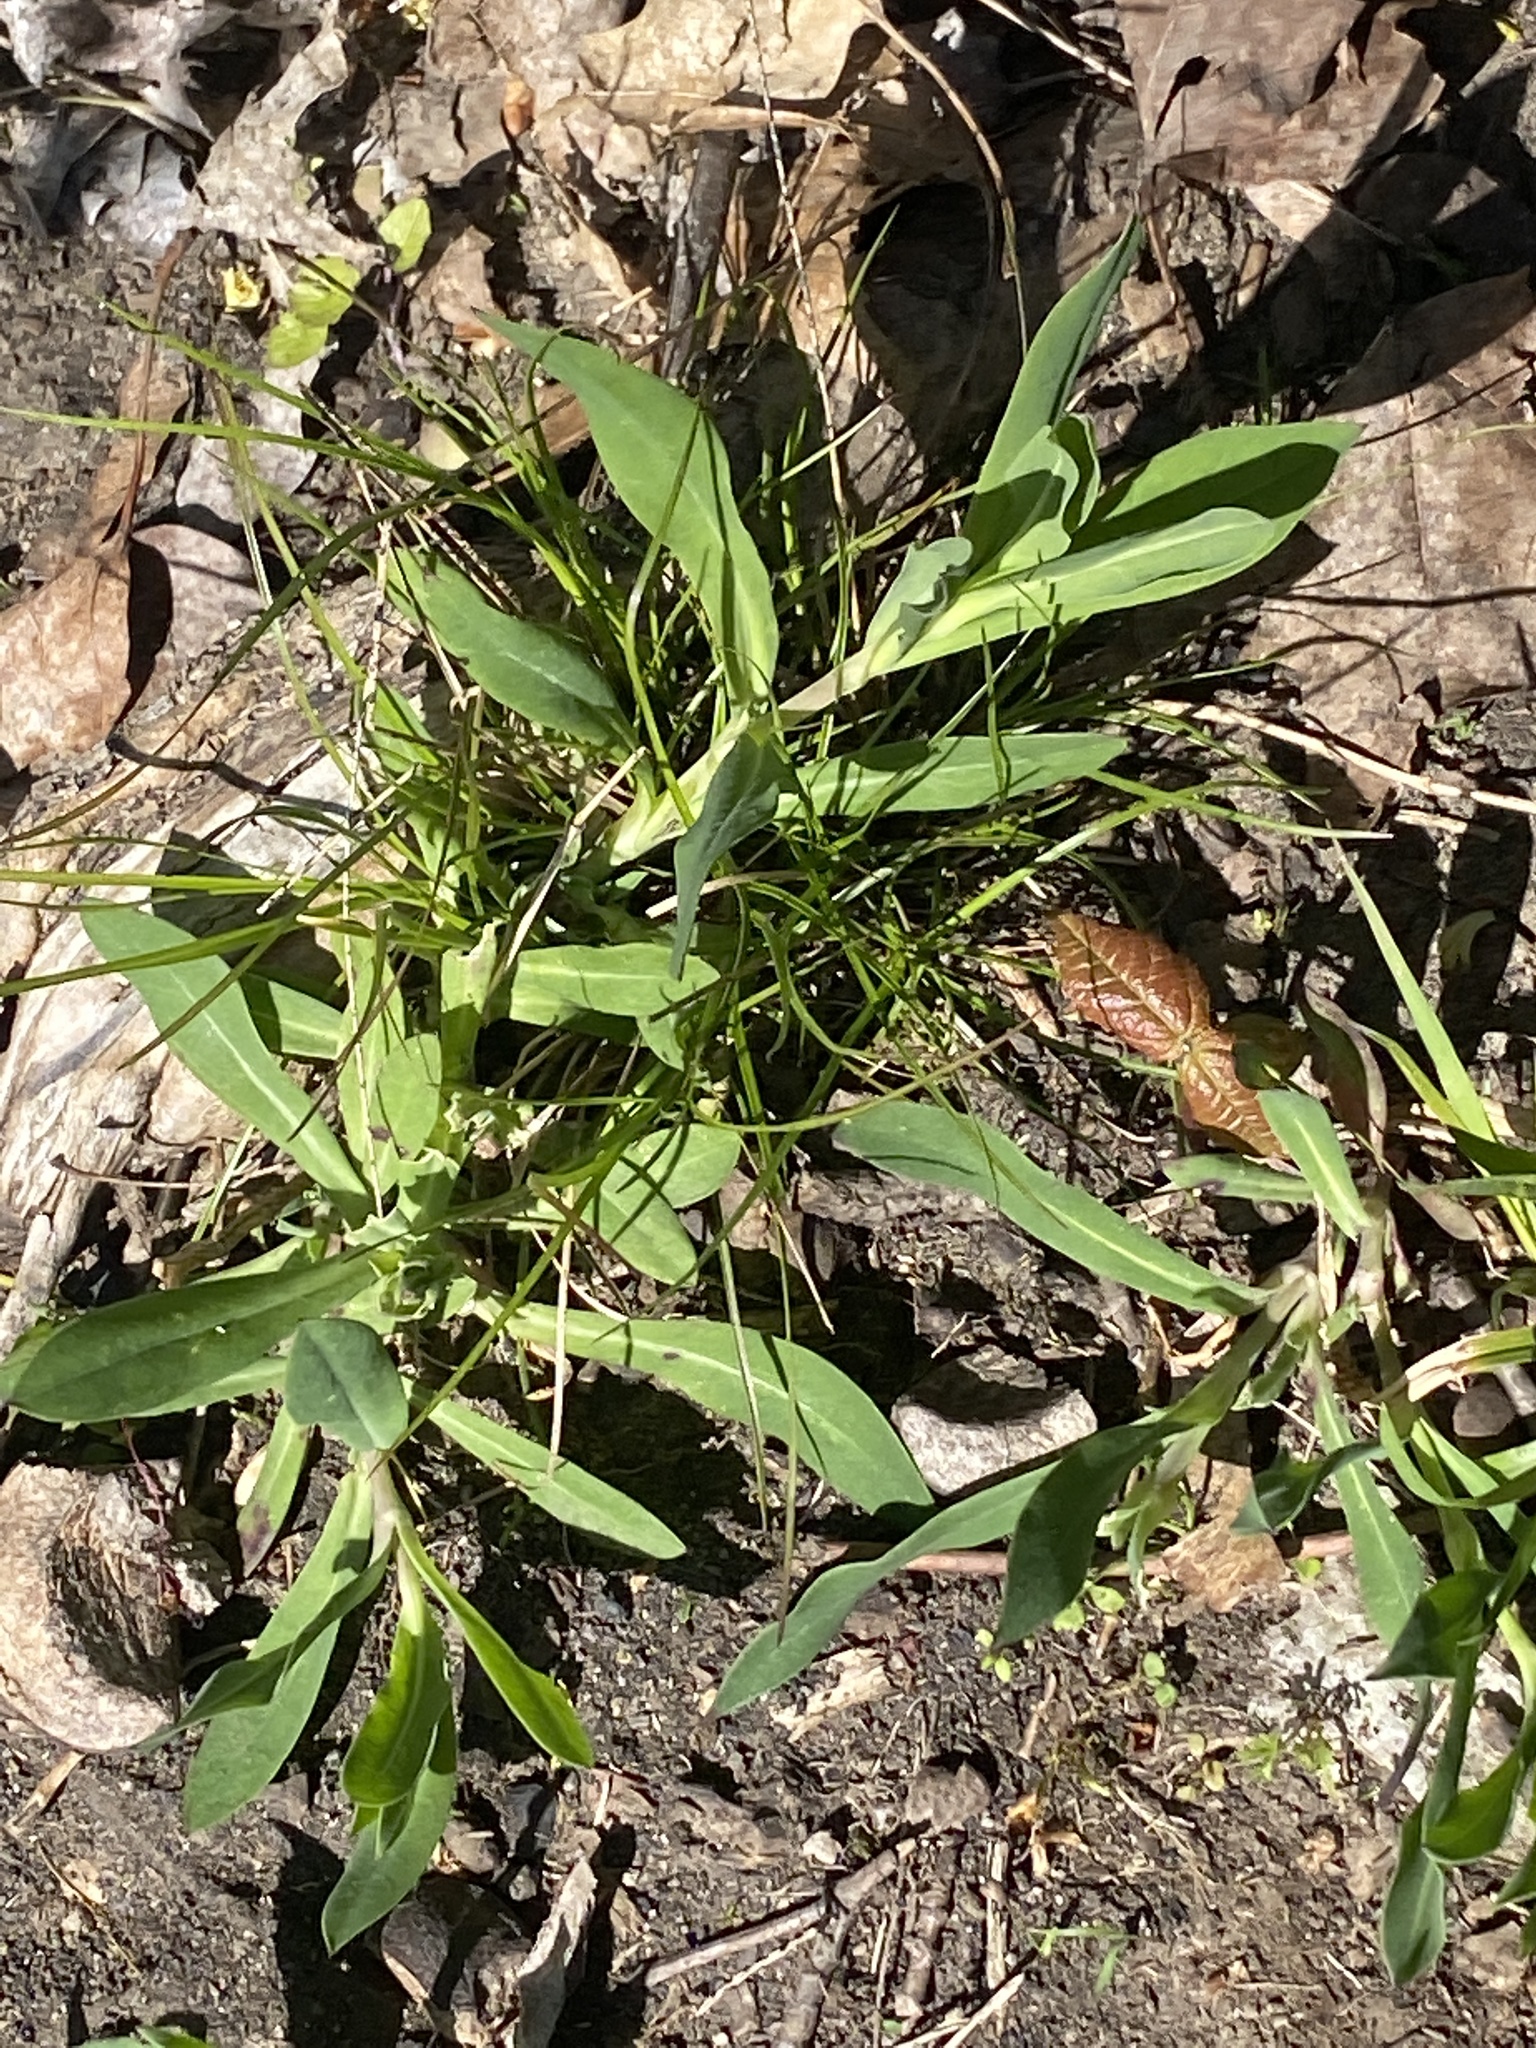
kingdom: Plantae
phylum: Tracheophyta
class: Magnoliopsida
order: Caryophyllales
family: Caryophyllaceae
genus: Silene
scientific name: Silene vulgaris
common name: Bladder campion
